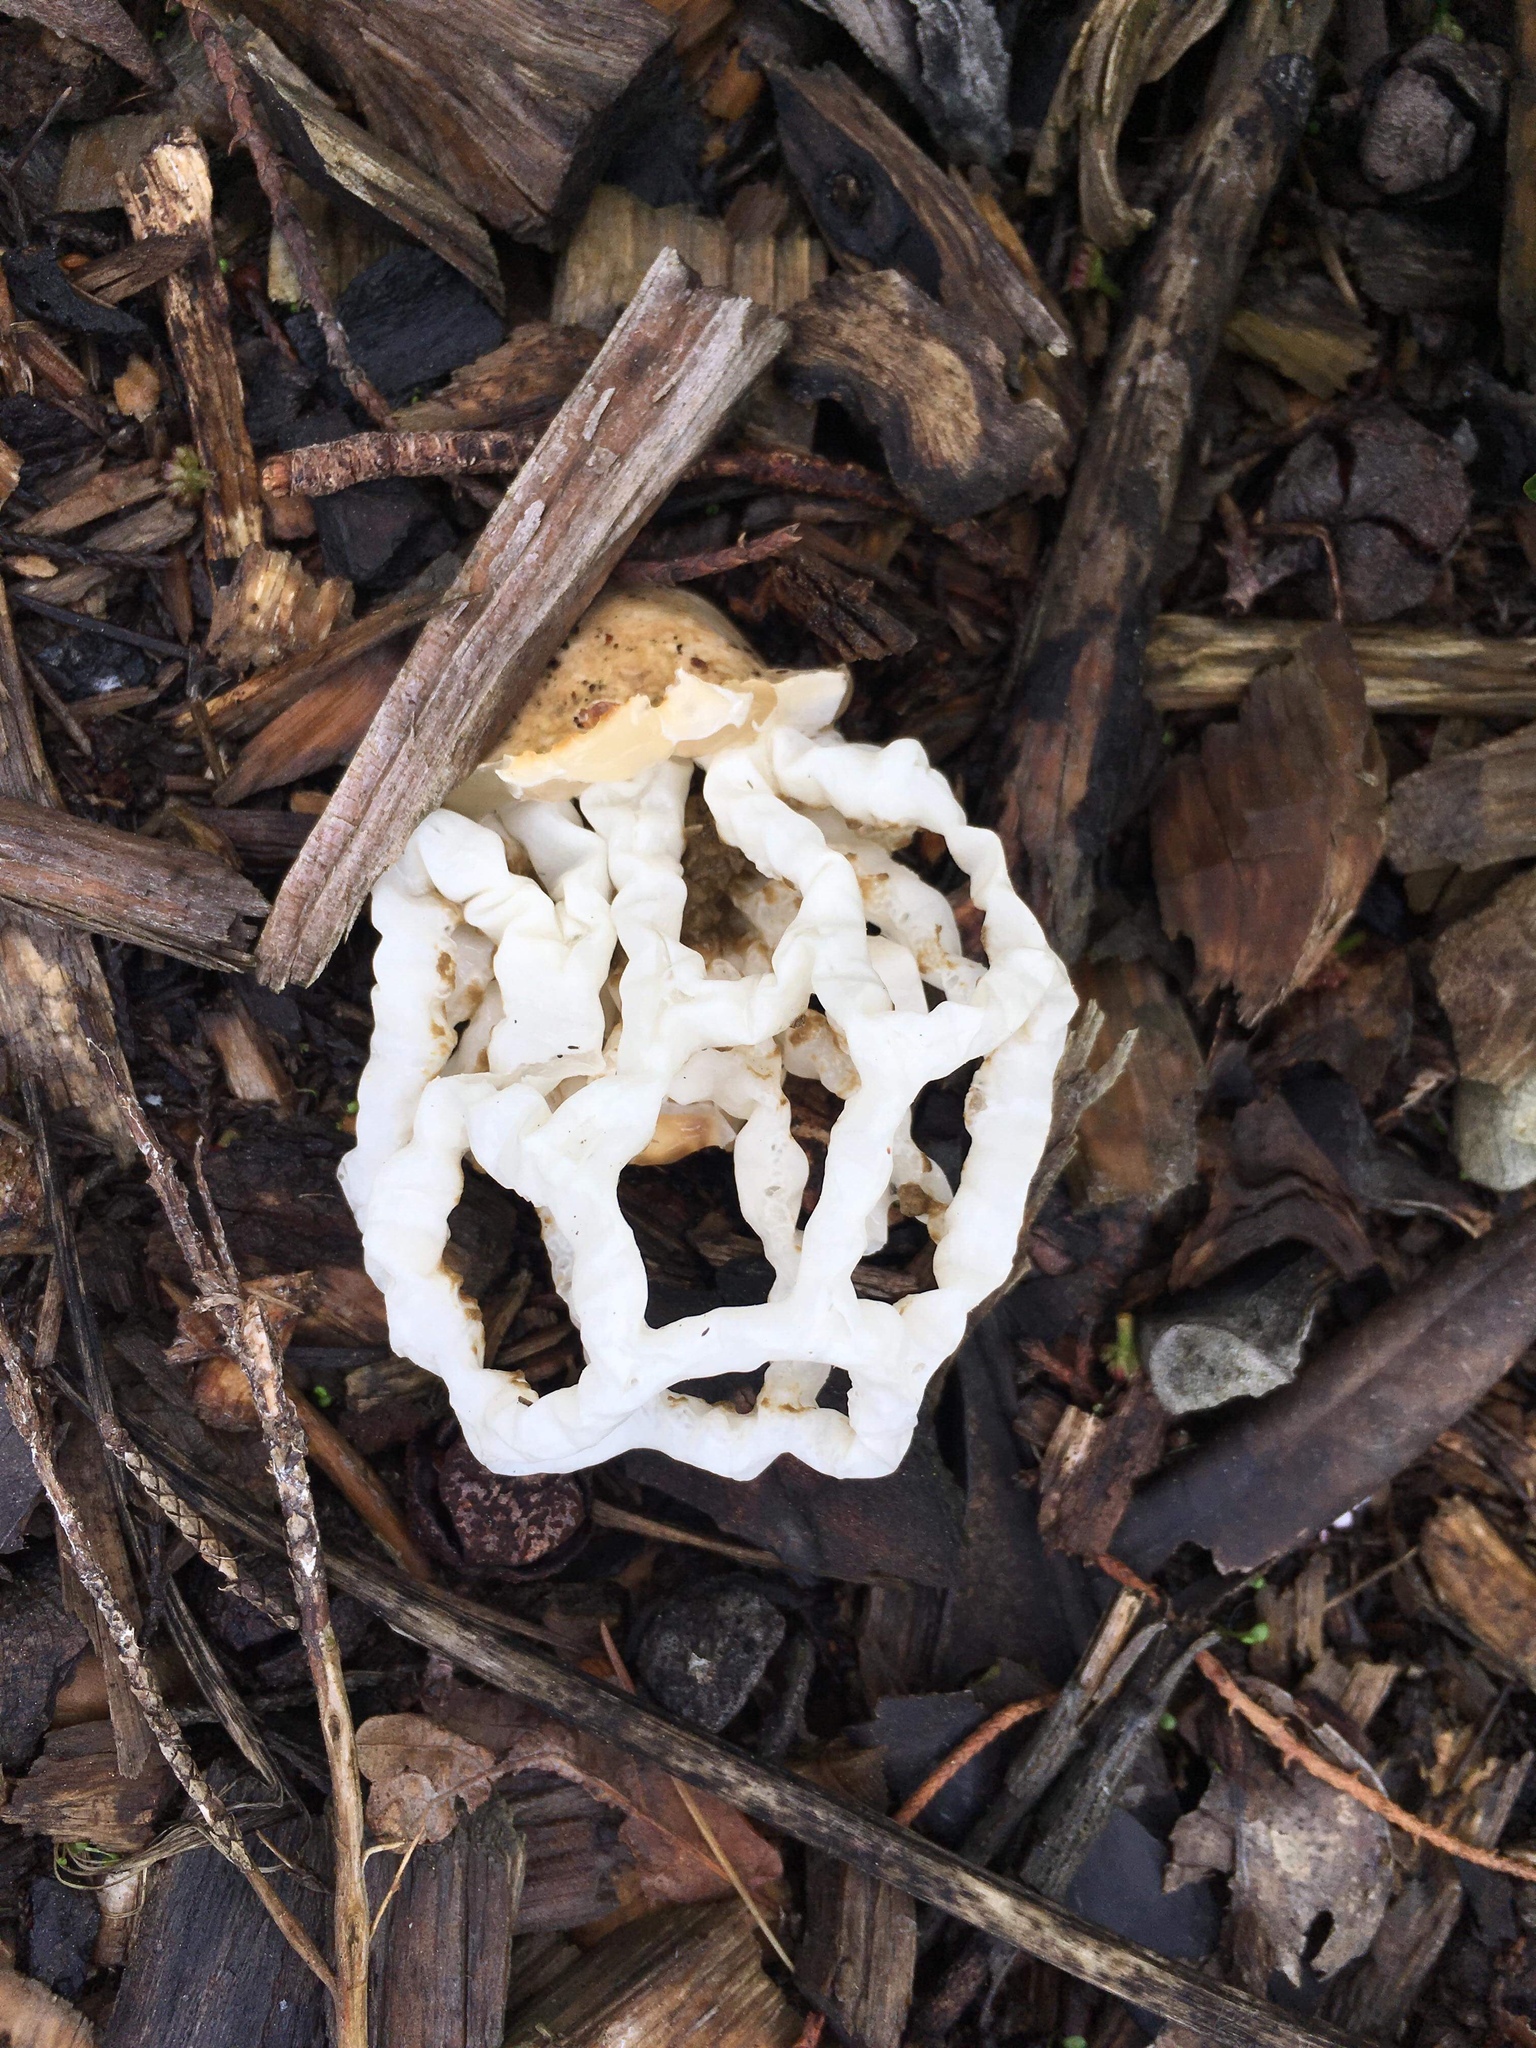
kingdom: Fungi
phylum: Basidiomycota
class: Agaricomycetes
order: Phallales
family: Phallaceae
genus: Ileodictyon
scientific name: Ileodictyon cibarium
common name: Basket fungus
